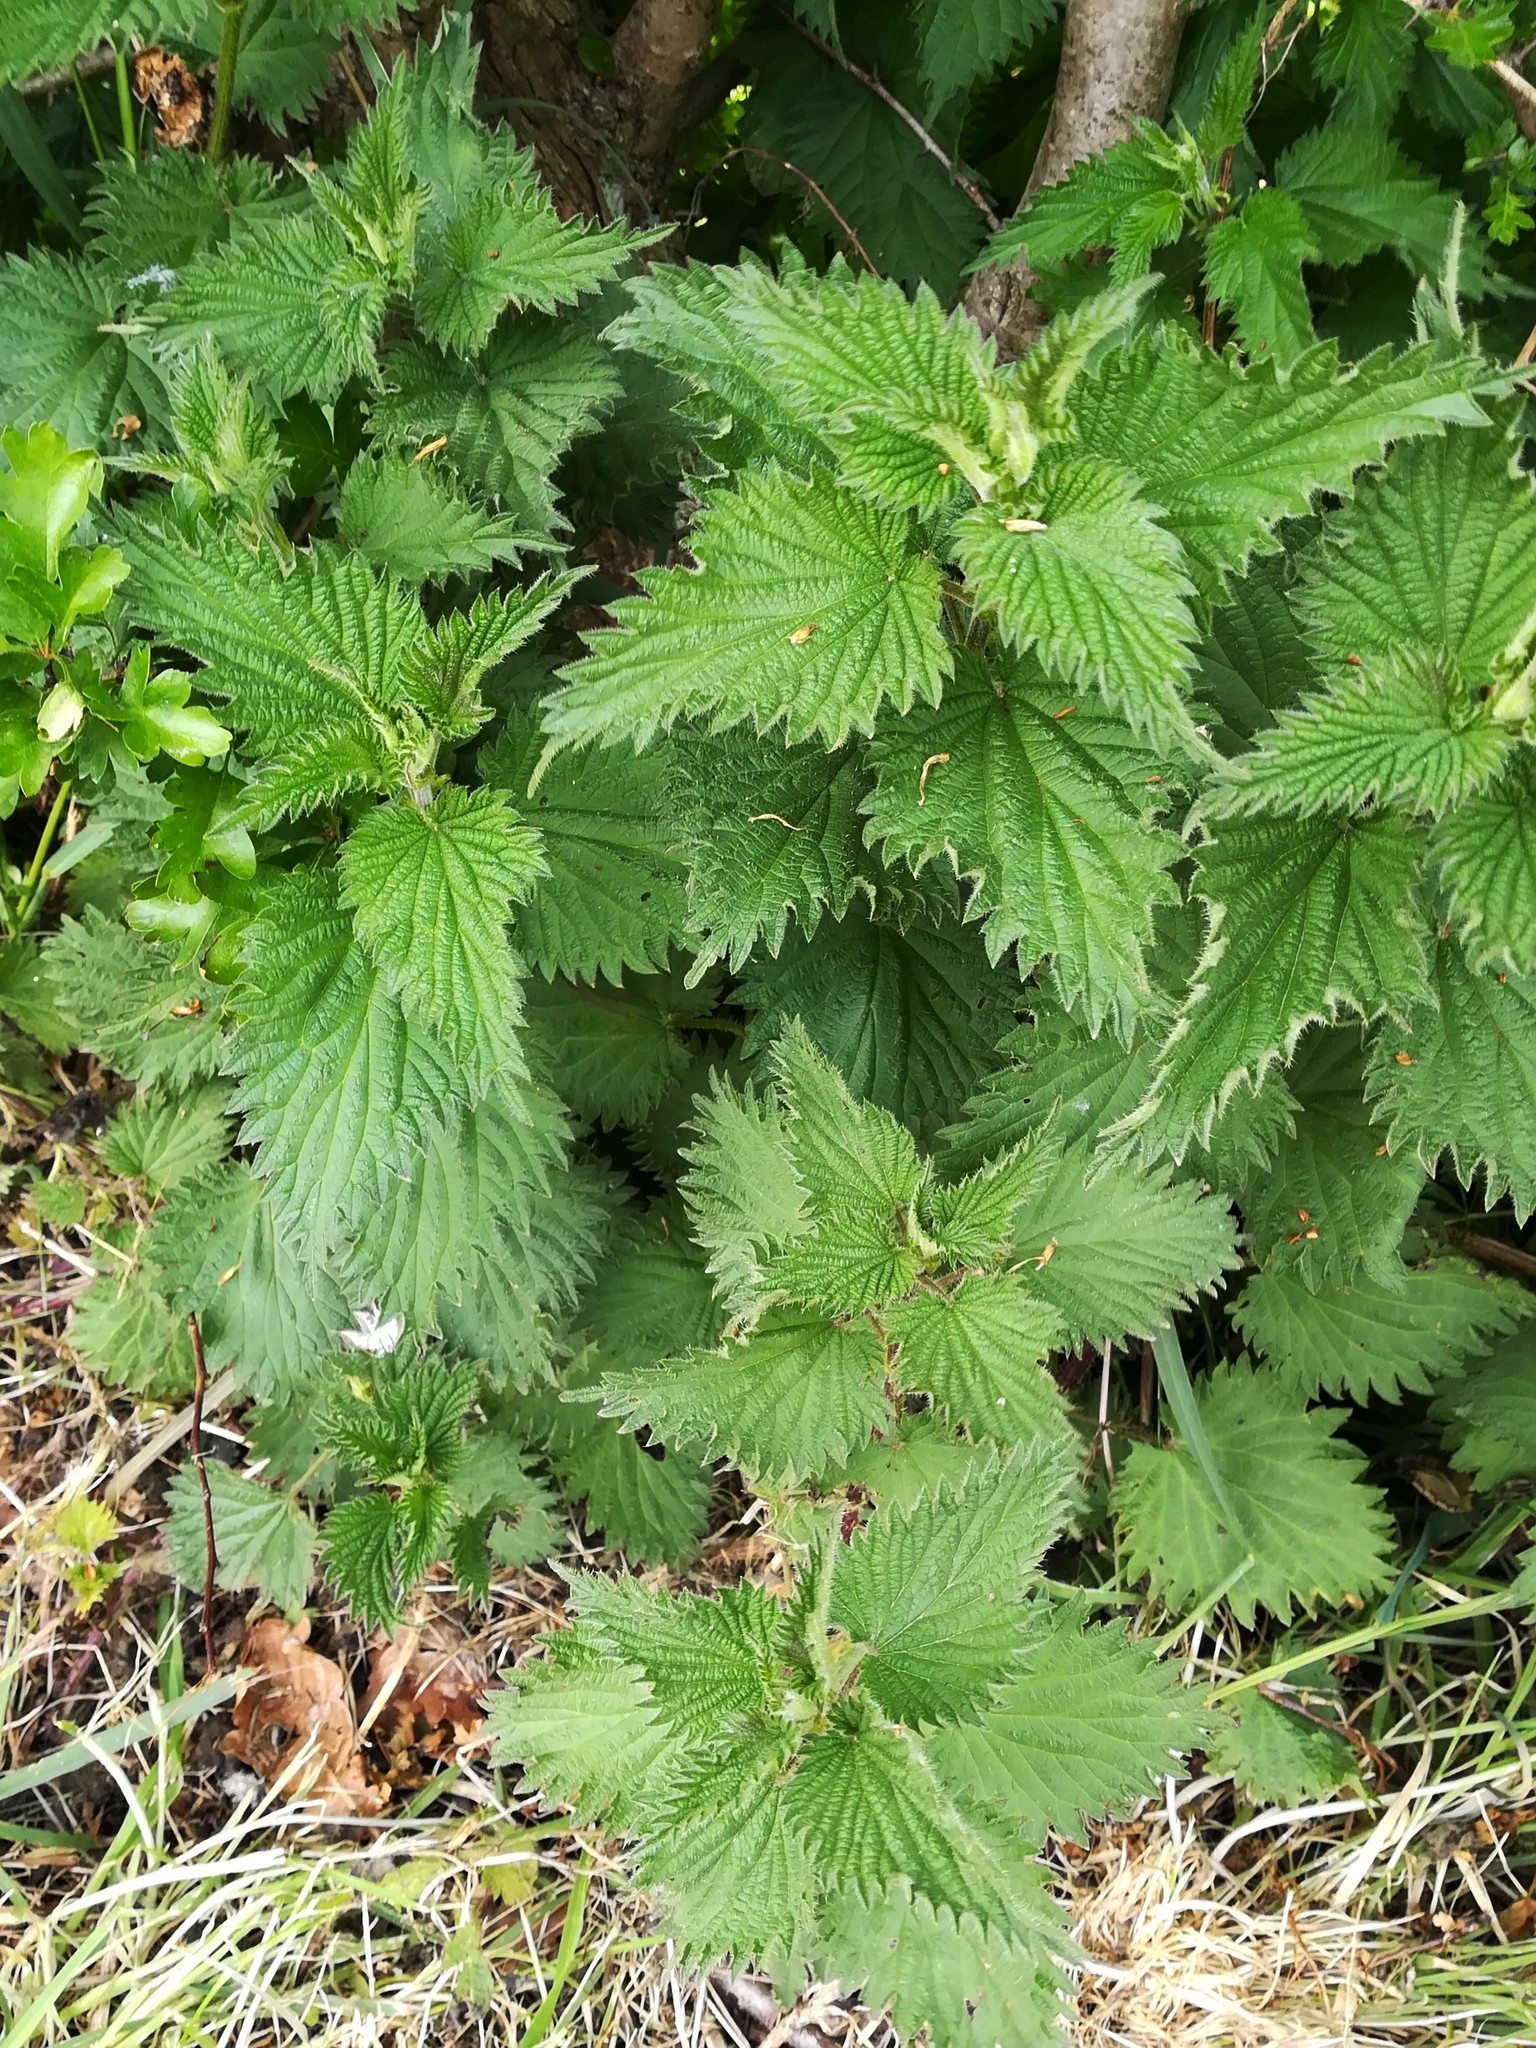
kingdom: Plantae
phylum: Tracheophyta
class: Magnoliopsida
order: Rosales
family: Urticaceae
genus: Urtica
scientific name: Urtica dioica
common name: Common nettle
